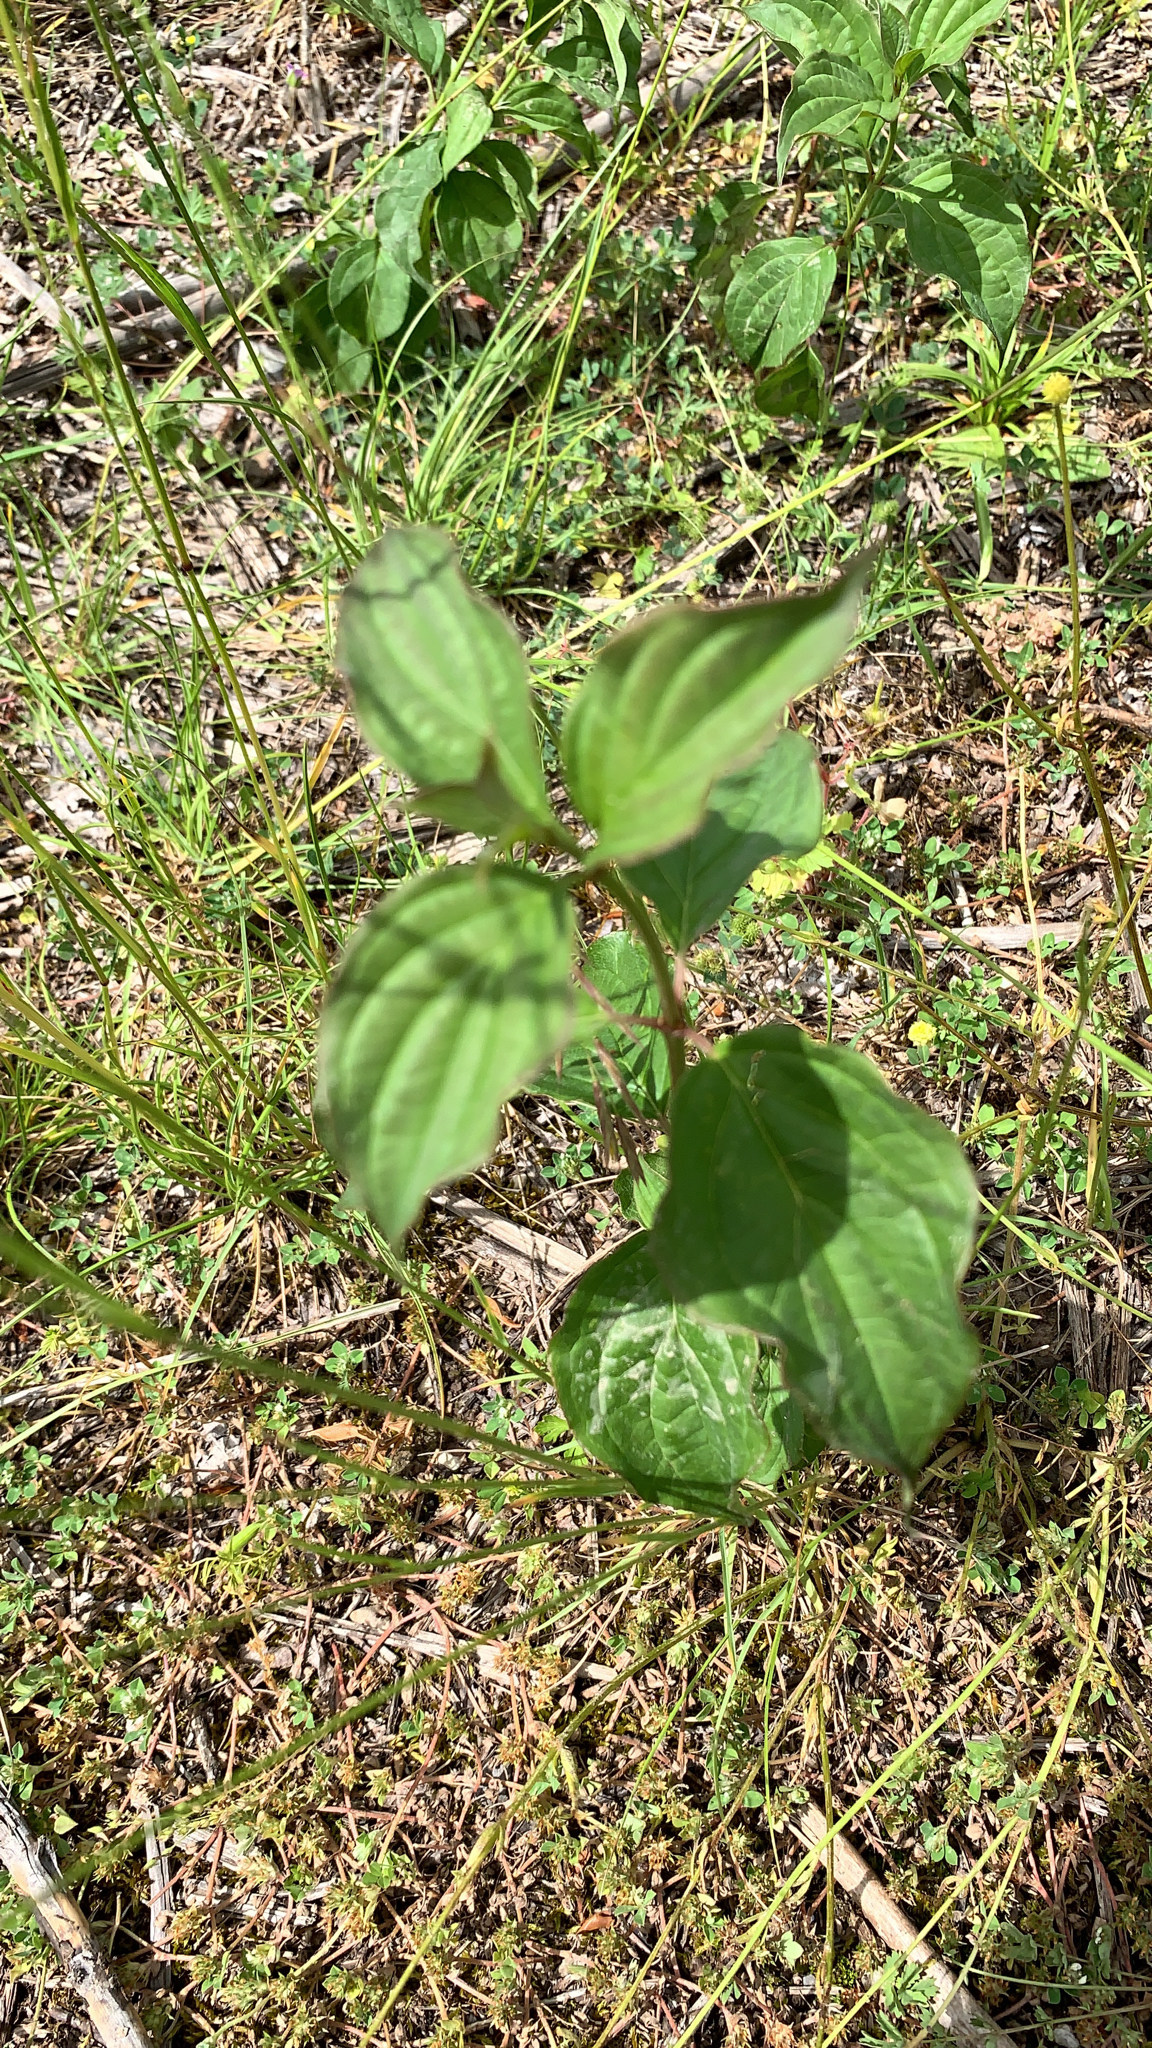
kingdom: Plantae
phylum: Tracheophyta
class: Magnoliopsida
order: Cornales
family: Cornaceae
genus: Cornus
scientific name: Cornus sanguinea
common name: Dogwood
